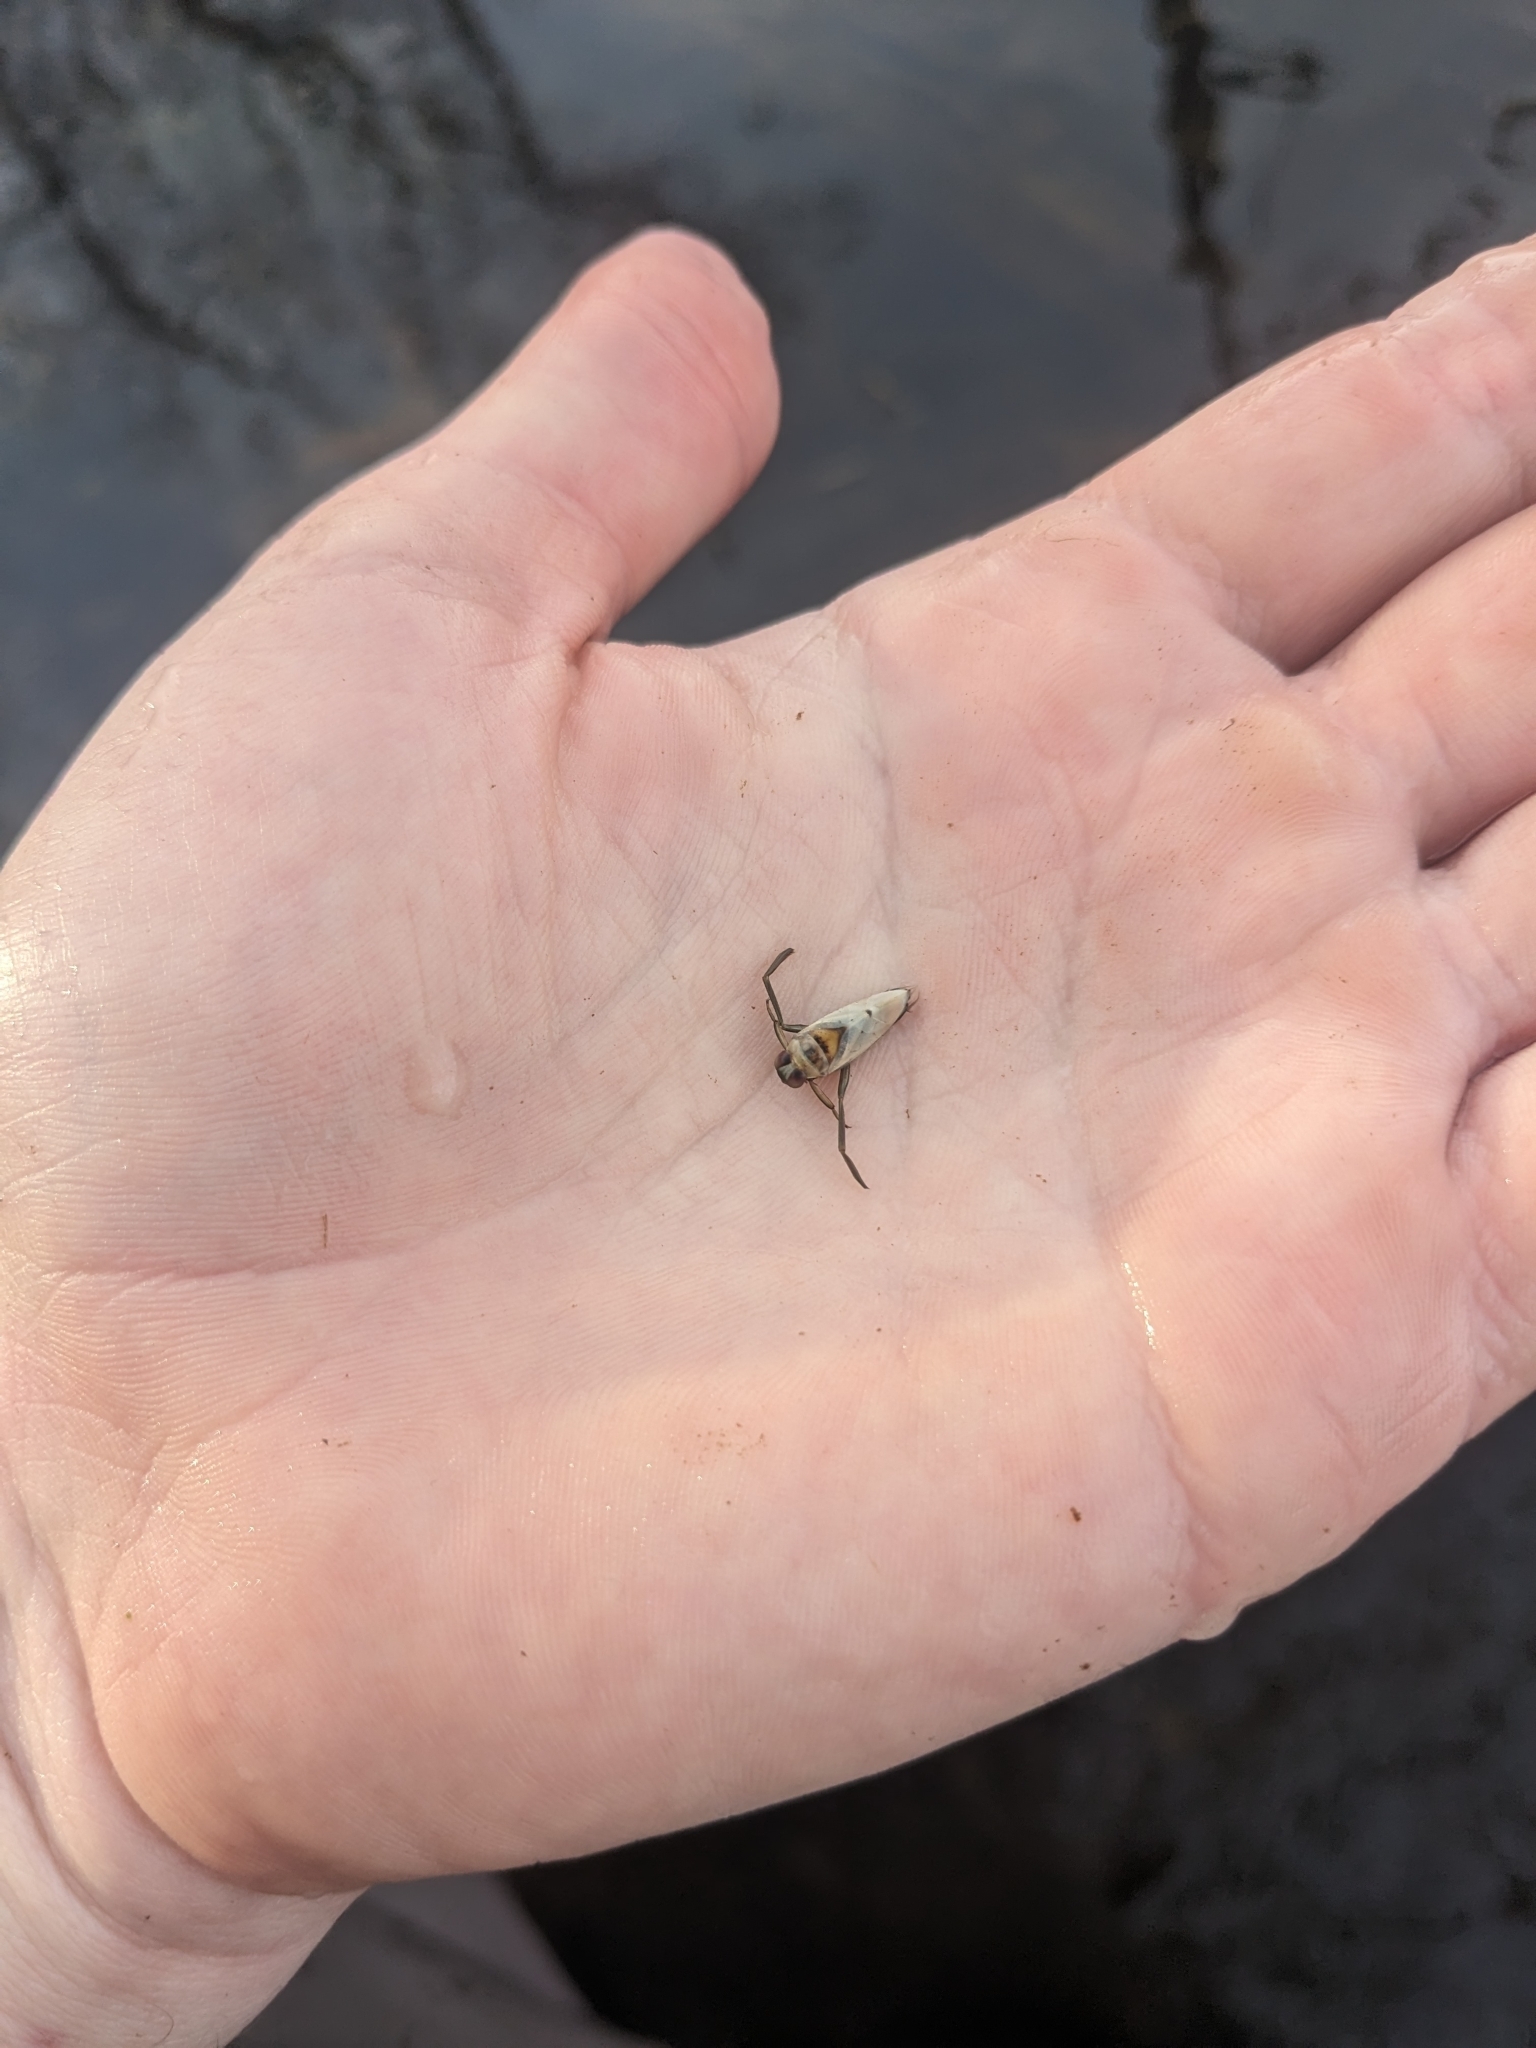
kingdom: Animalia
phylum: Arthropoda
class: Insecta
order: Hemiptera
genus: Paranecta
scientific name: Paranecta
